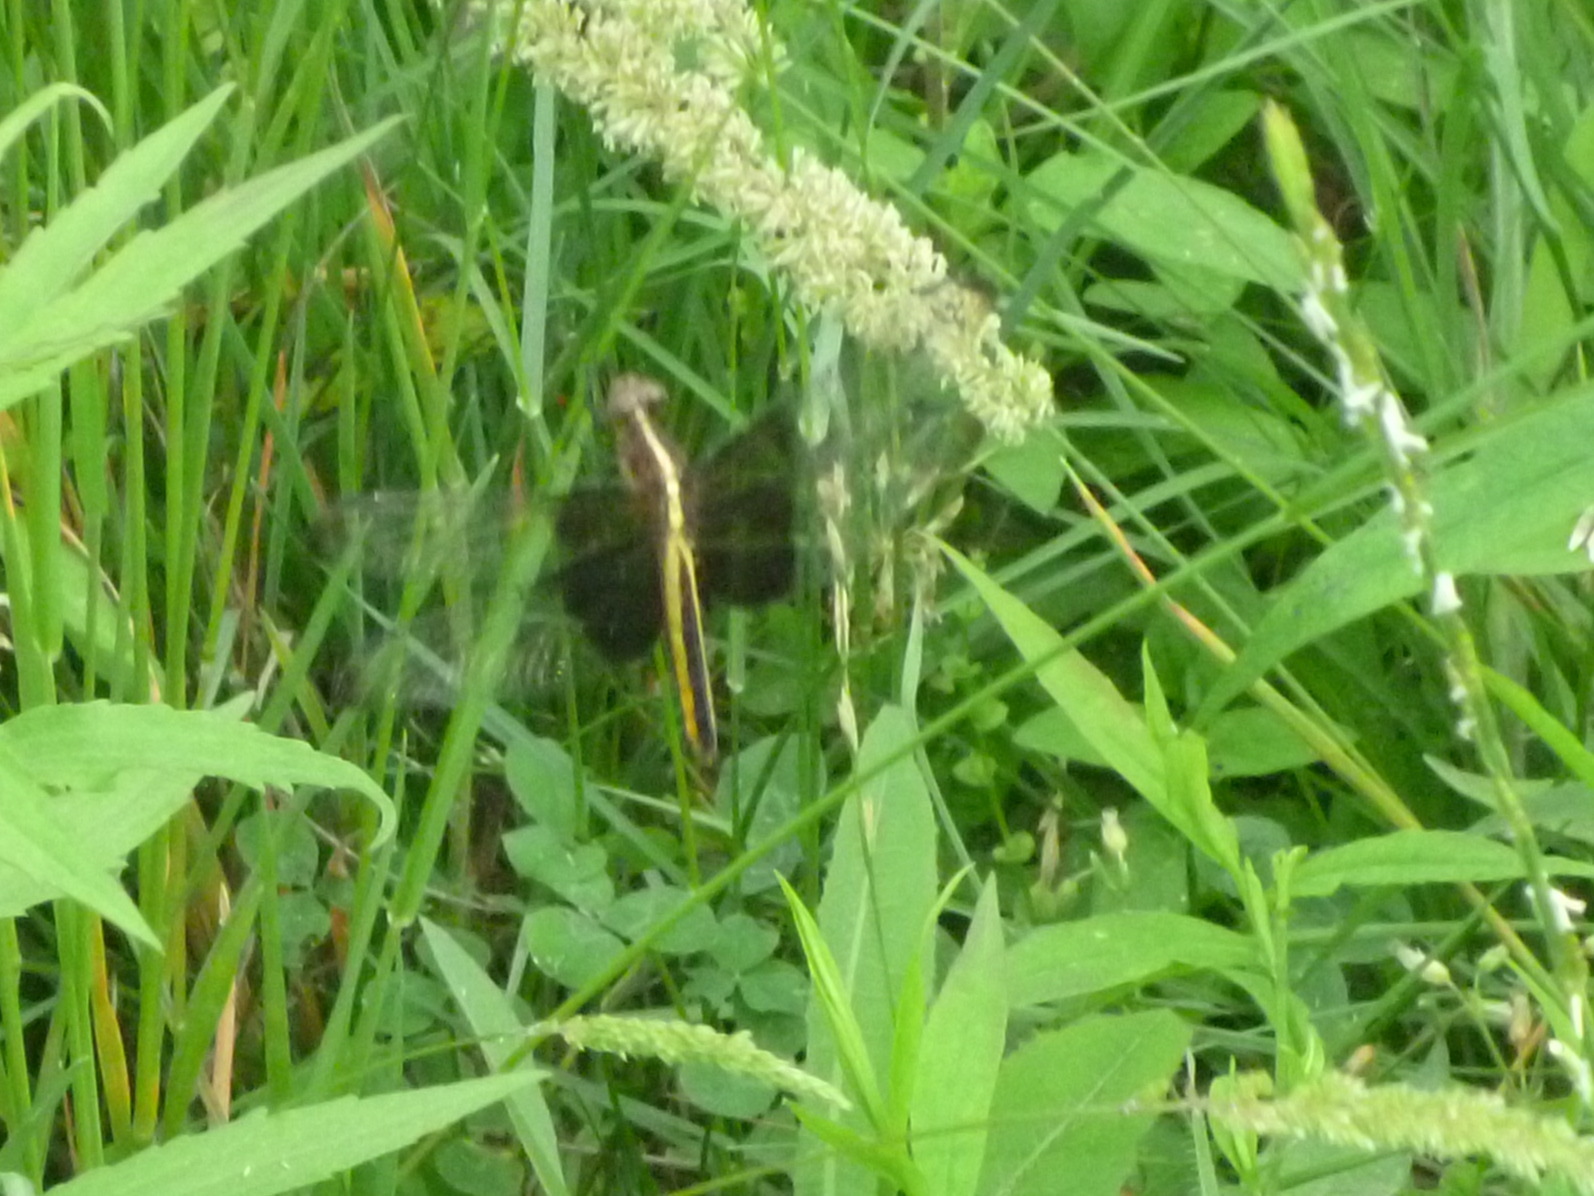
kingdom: Animalia
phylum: Arthropoda
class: Insecta
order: Odonata
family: Libellulidae
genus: Libellula
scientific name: Libellula luctuosa
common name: Widow skimmer
